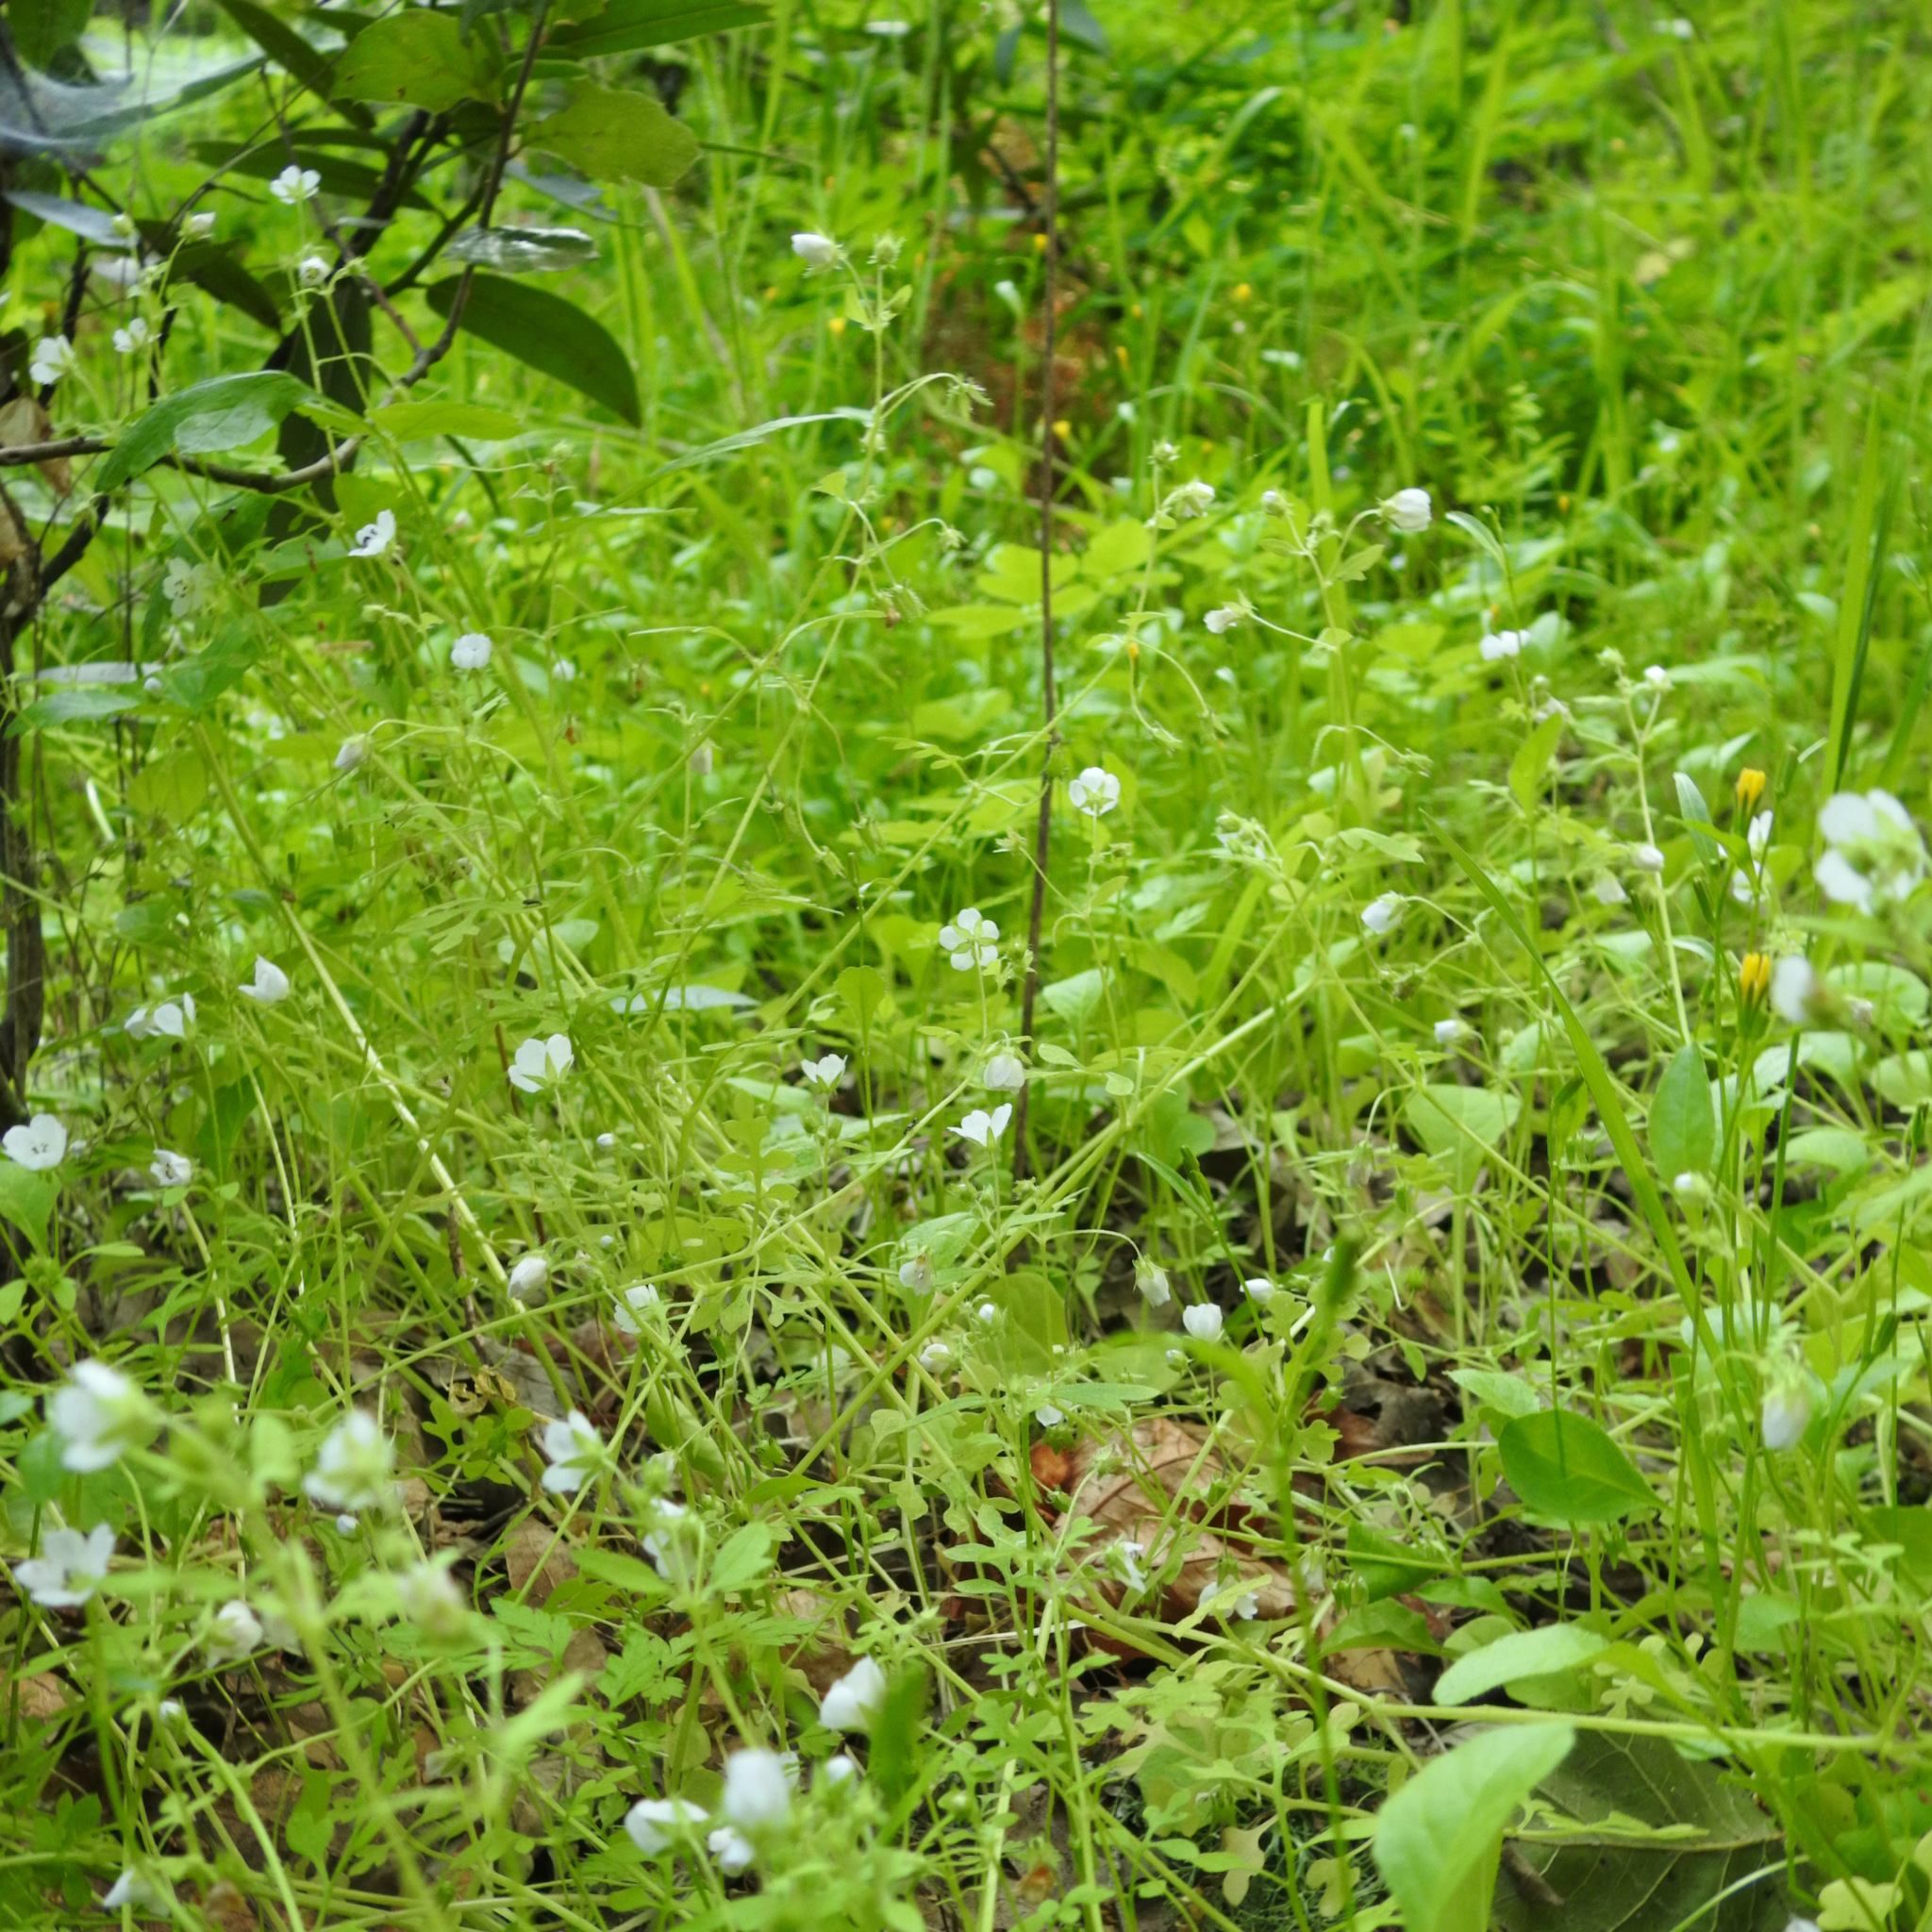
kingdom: Plantae
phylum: Tracheophyta
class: Magnoliopsida
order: Boraginales
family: Hydrophyllaceae
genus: Nemophila
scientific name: Nemophila heterophylla
